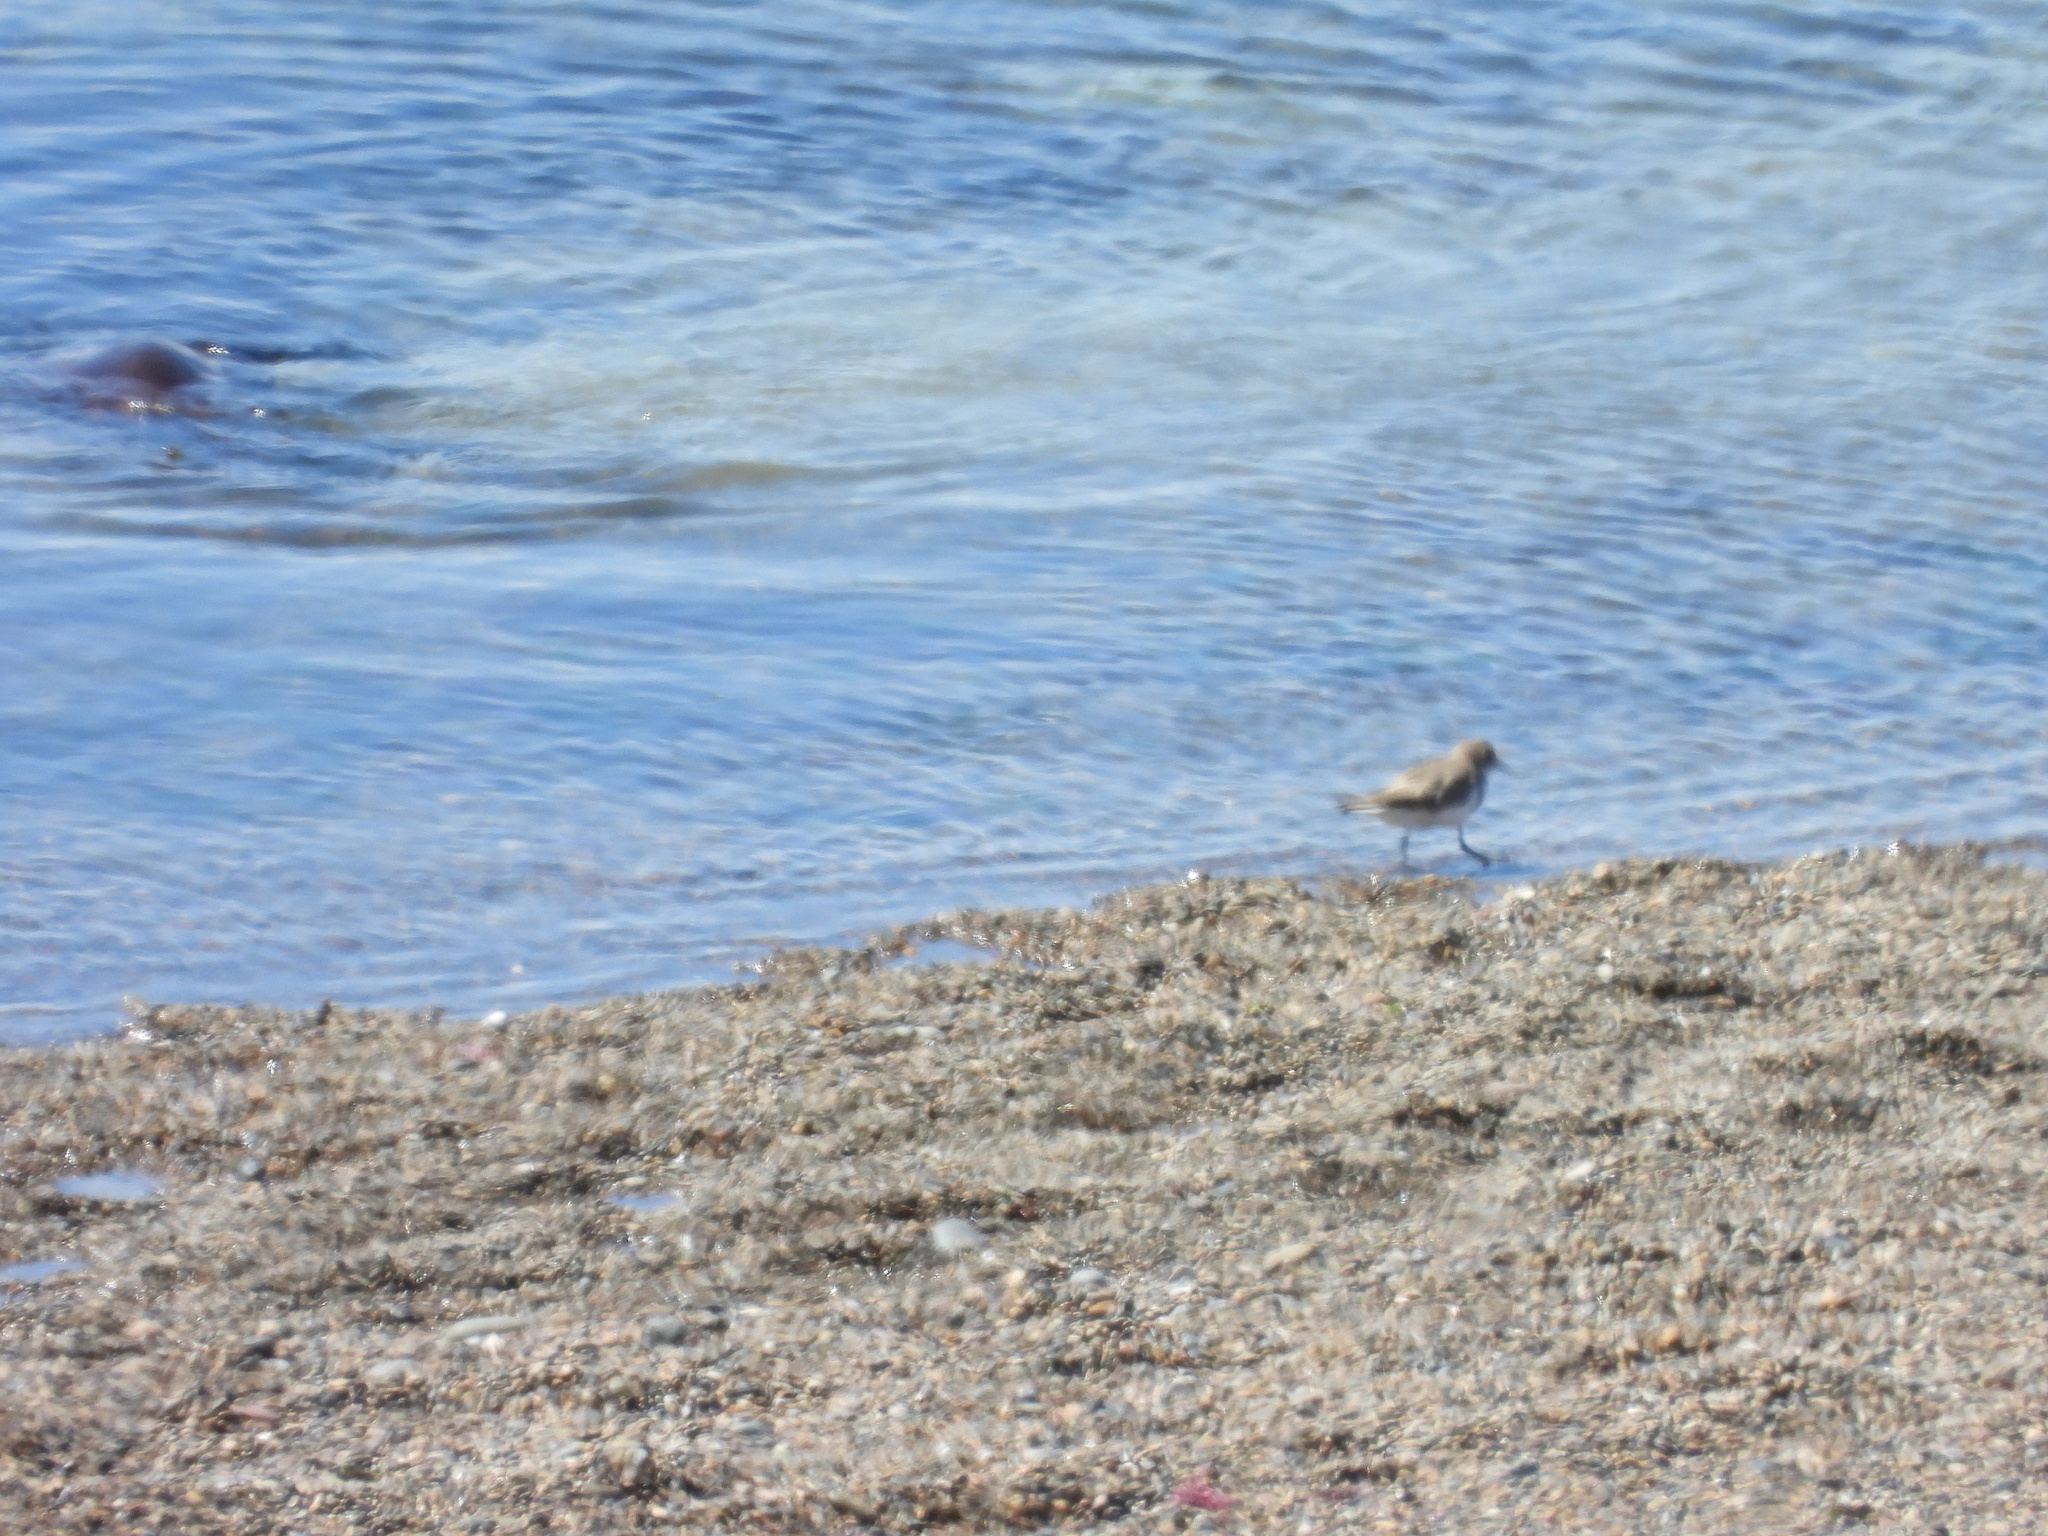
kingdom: Animalia
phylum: Chordata
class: Aves
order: Charadriiformes
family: Charadriidae
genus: Anarhynchus
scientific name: Anarhynchus
